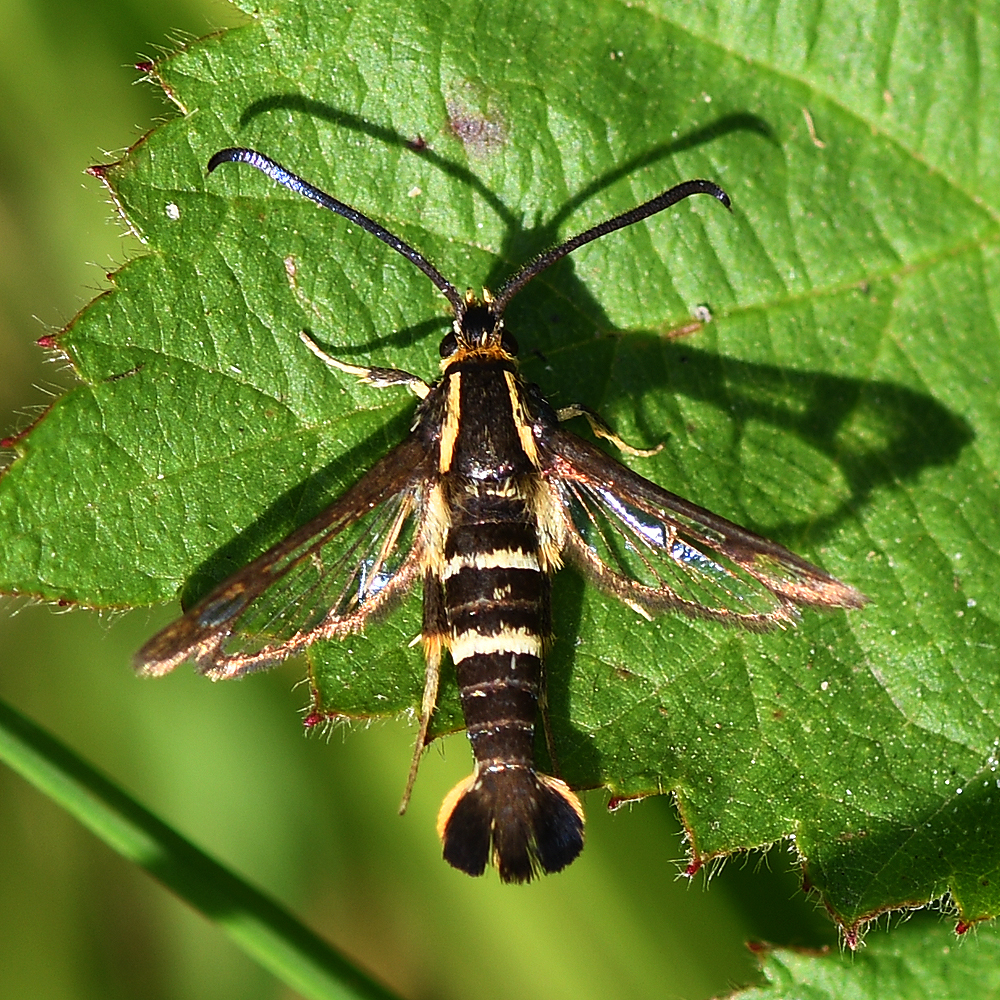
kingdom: Animalia
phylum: Arthropoda
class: Insecta
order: Lepidoptera
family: Sesiidae
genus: Synanthedon
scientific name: Synanthedon bibionipennis
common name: Strawberry crown moth
